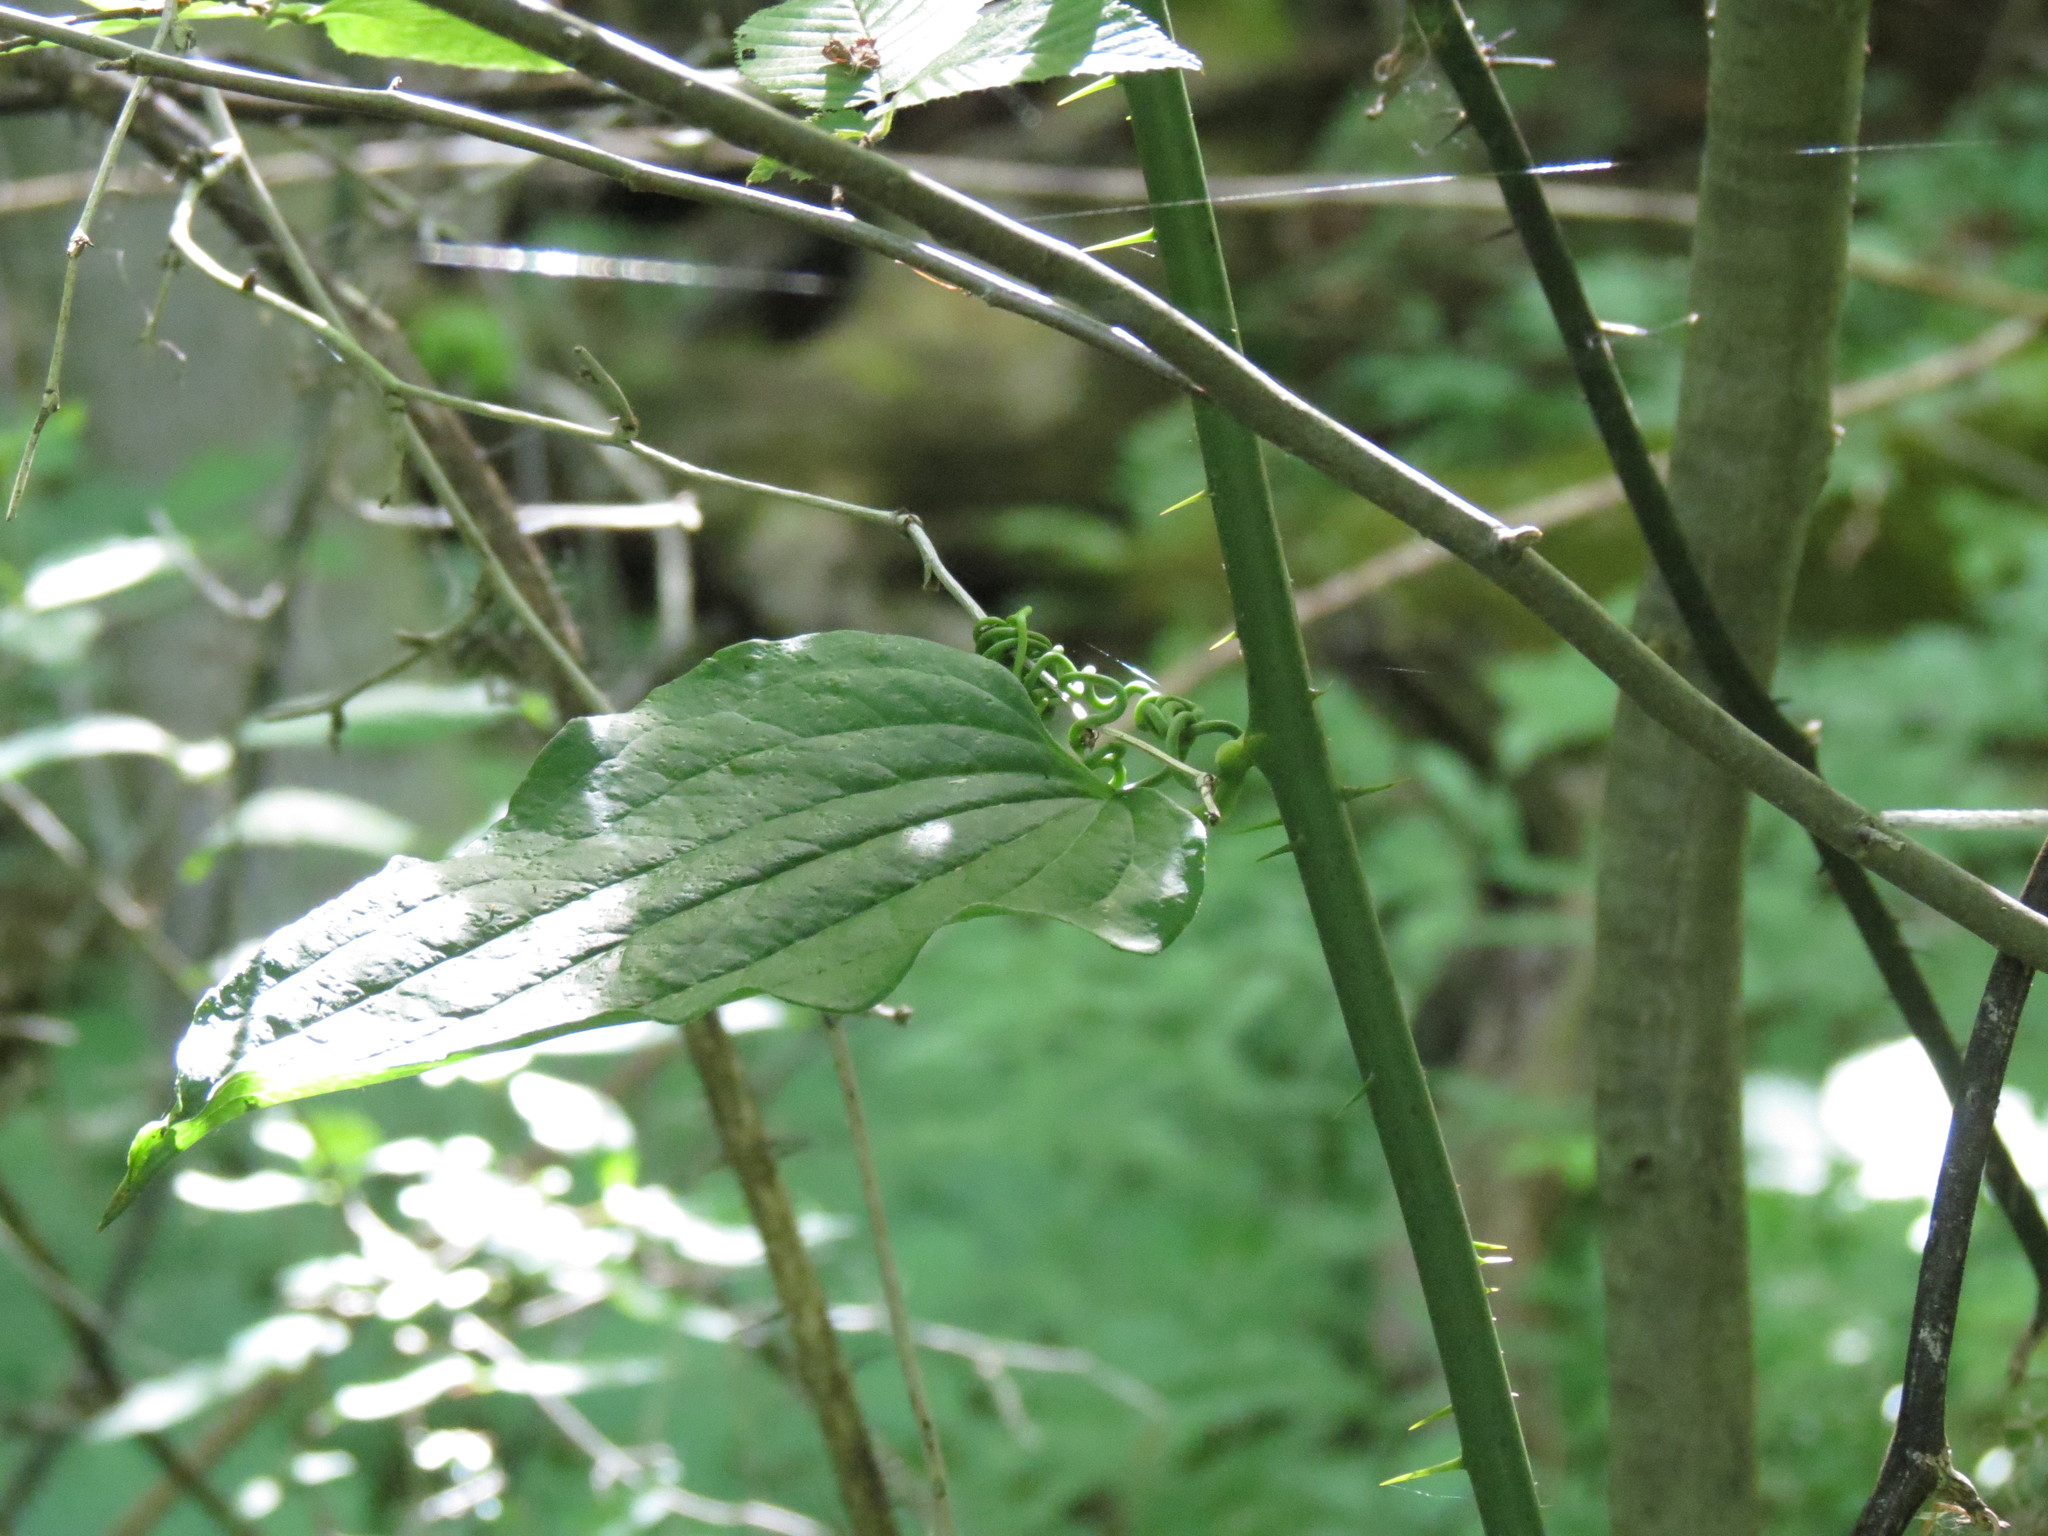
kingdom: Plantae
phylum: Tracheophyta
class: Liliopsida
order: Liliales
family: Smilacaceae
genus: Smilax
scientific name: Smilax tamnoides
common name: Hellfetter
